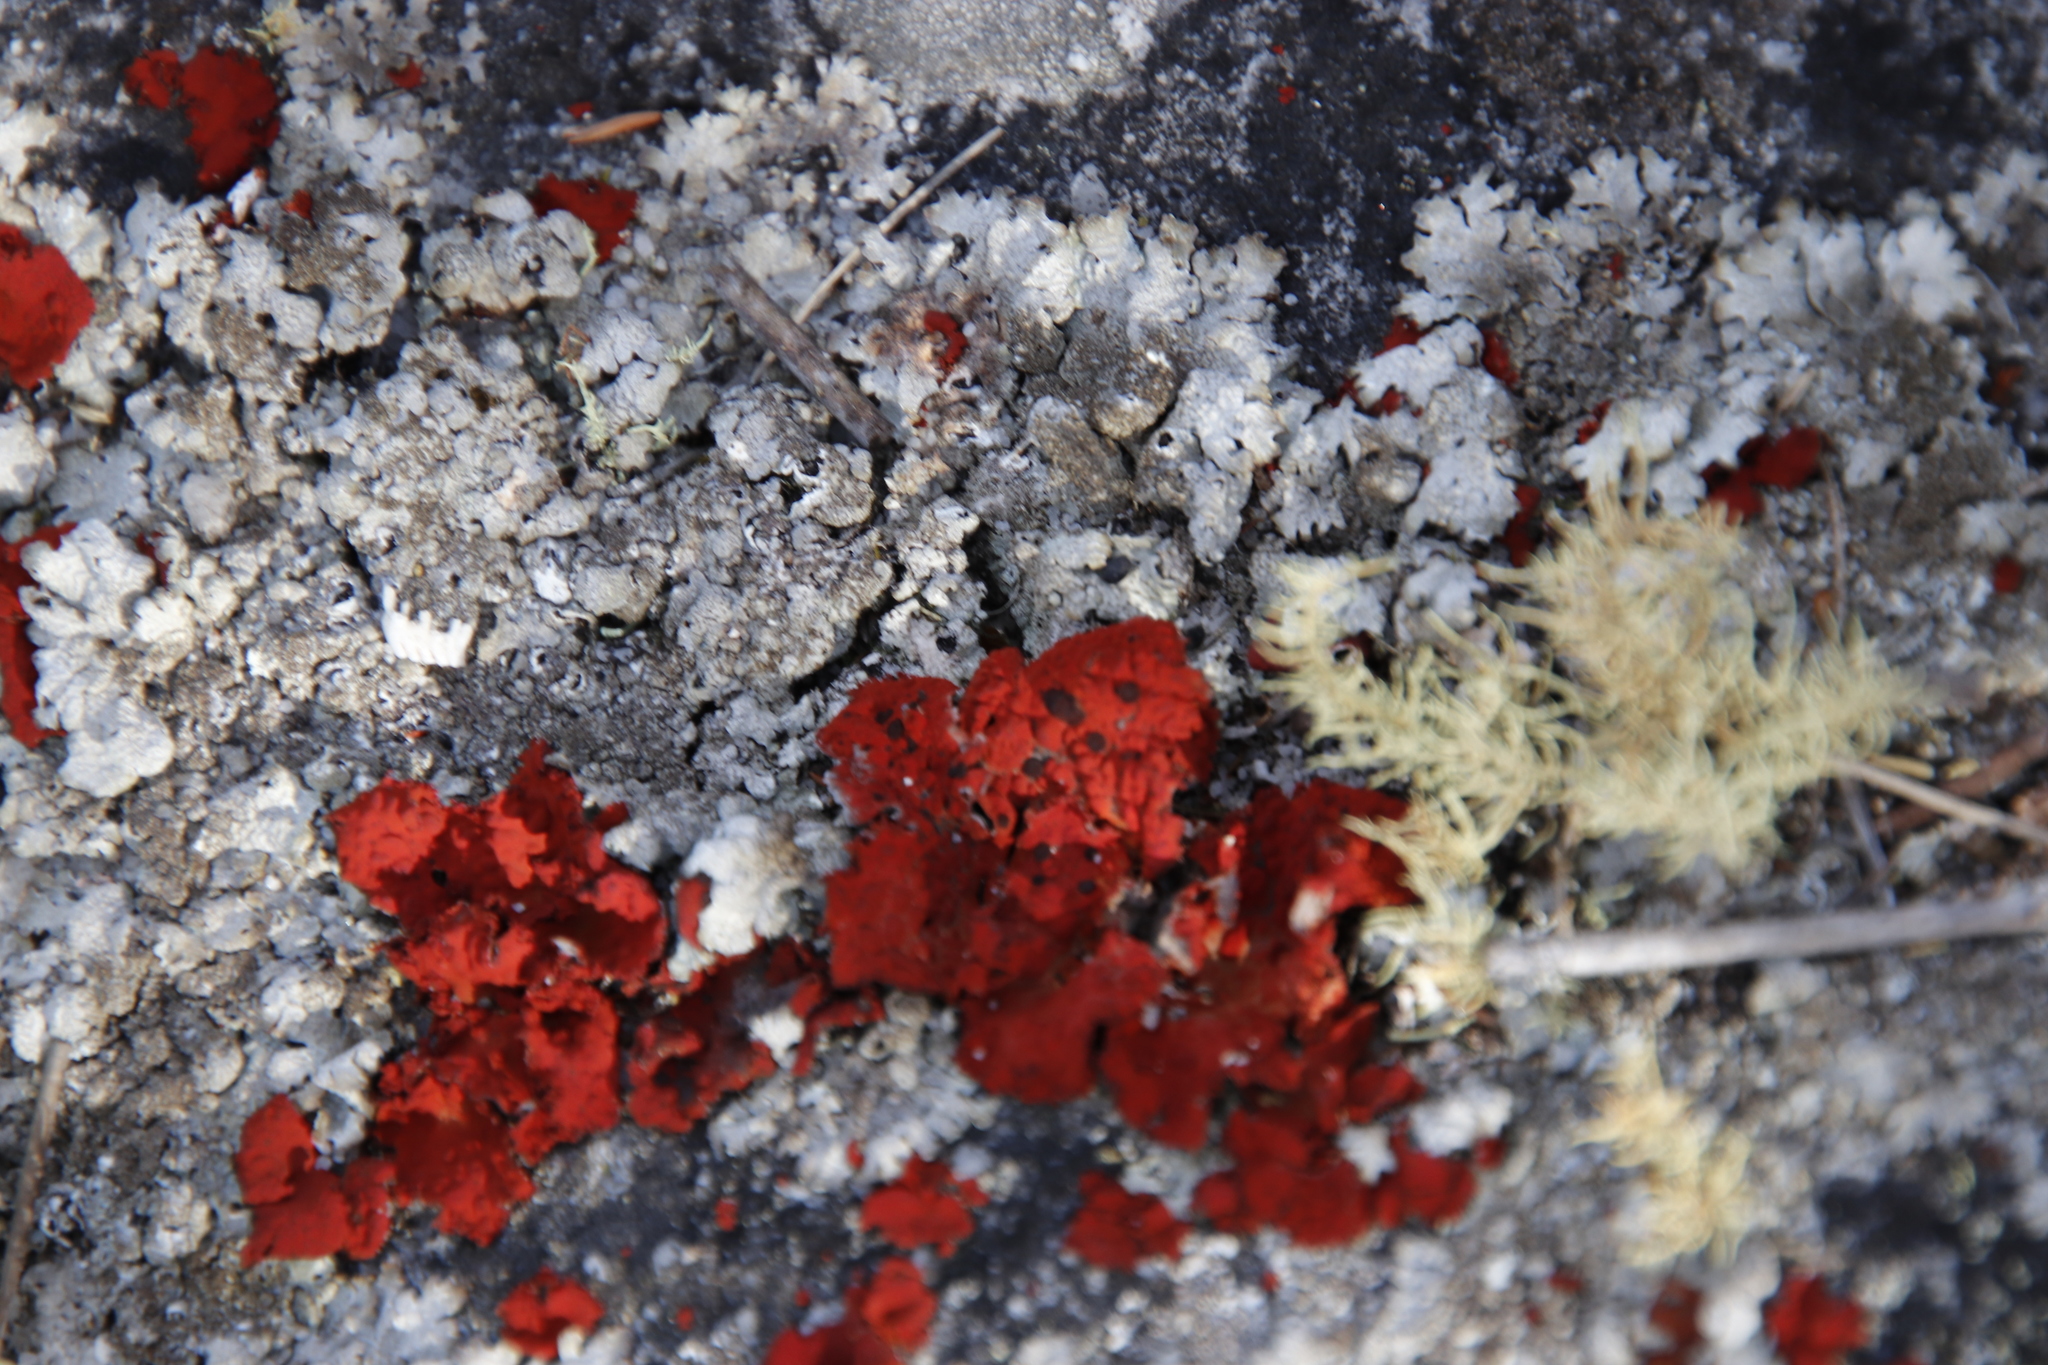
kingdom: Fungi
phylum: Ascomycota
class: Lecanoromycetes
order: Umbilicariales
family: Umbilicariaceae
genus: Lasallia
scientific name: Lasallia rubiginosa
